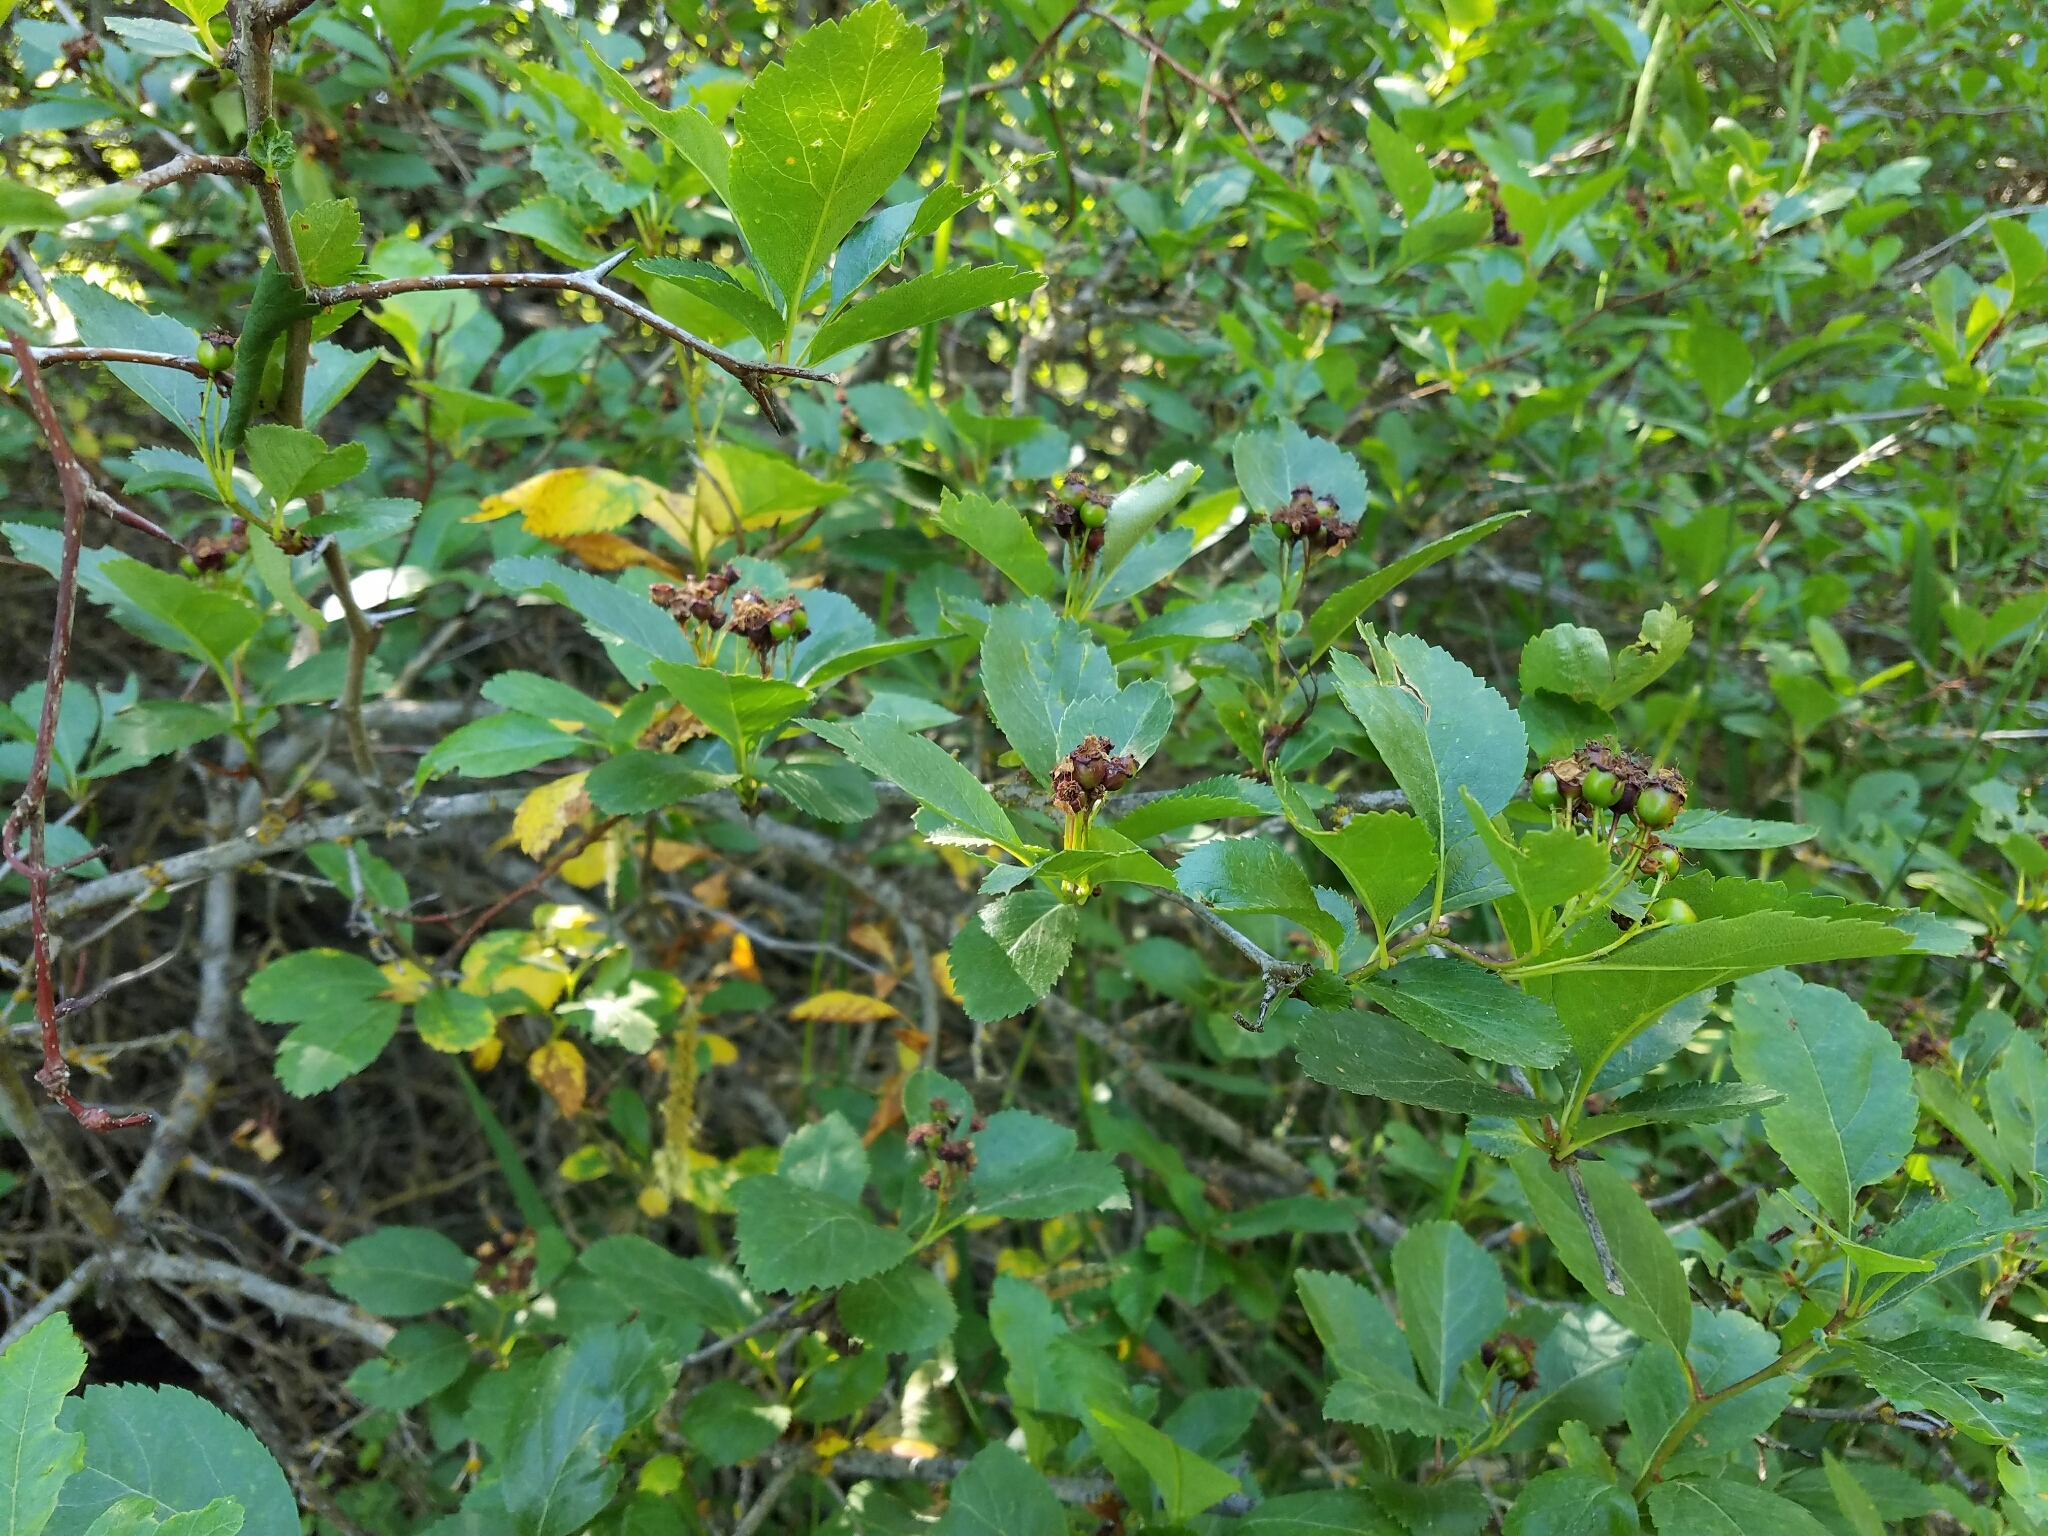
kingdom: Plantae
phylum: Tracheophyta
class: Magnoliopsida
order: Rosales
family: Rosaceae
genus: Crataegus
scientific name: Crataegus douglasii
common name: Black hawthorn
